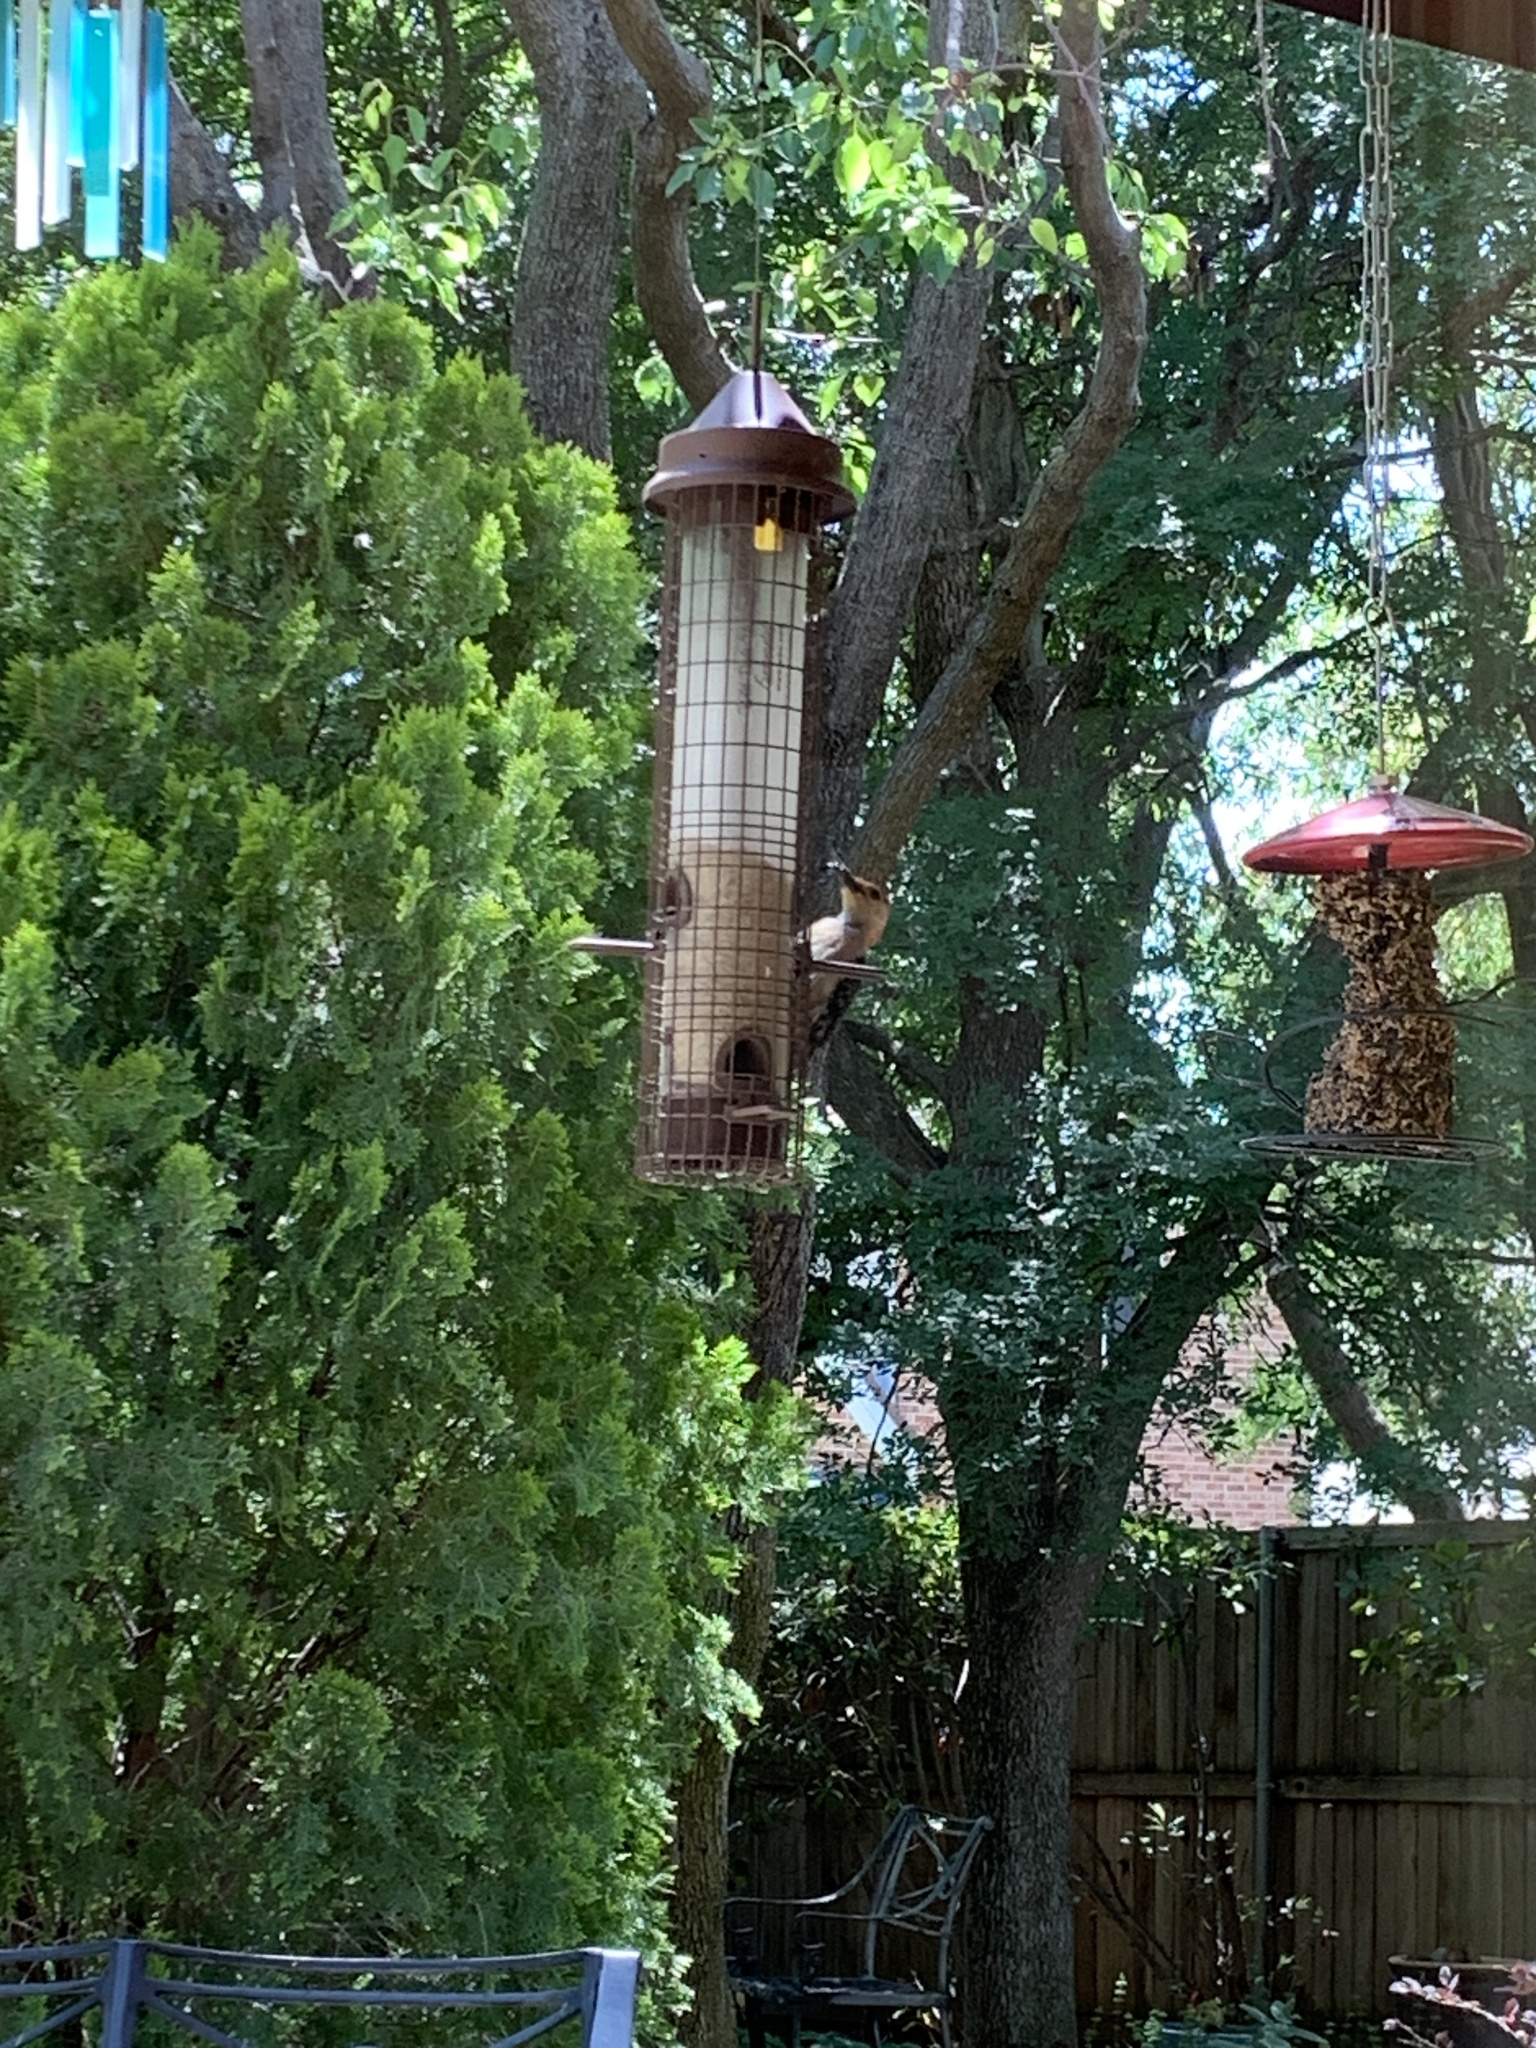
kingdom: Animalia
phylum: Chordata
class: Aves
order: Piciformes
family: Picidae
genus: Melanerpes
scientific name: Melanerpes carolinus
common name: Red-bellied woodpecker
